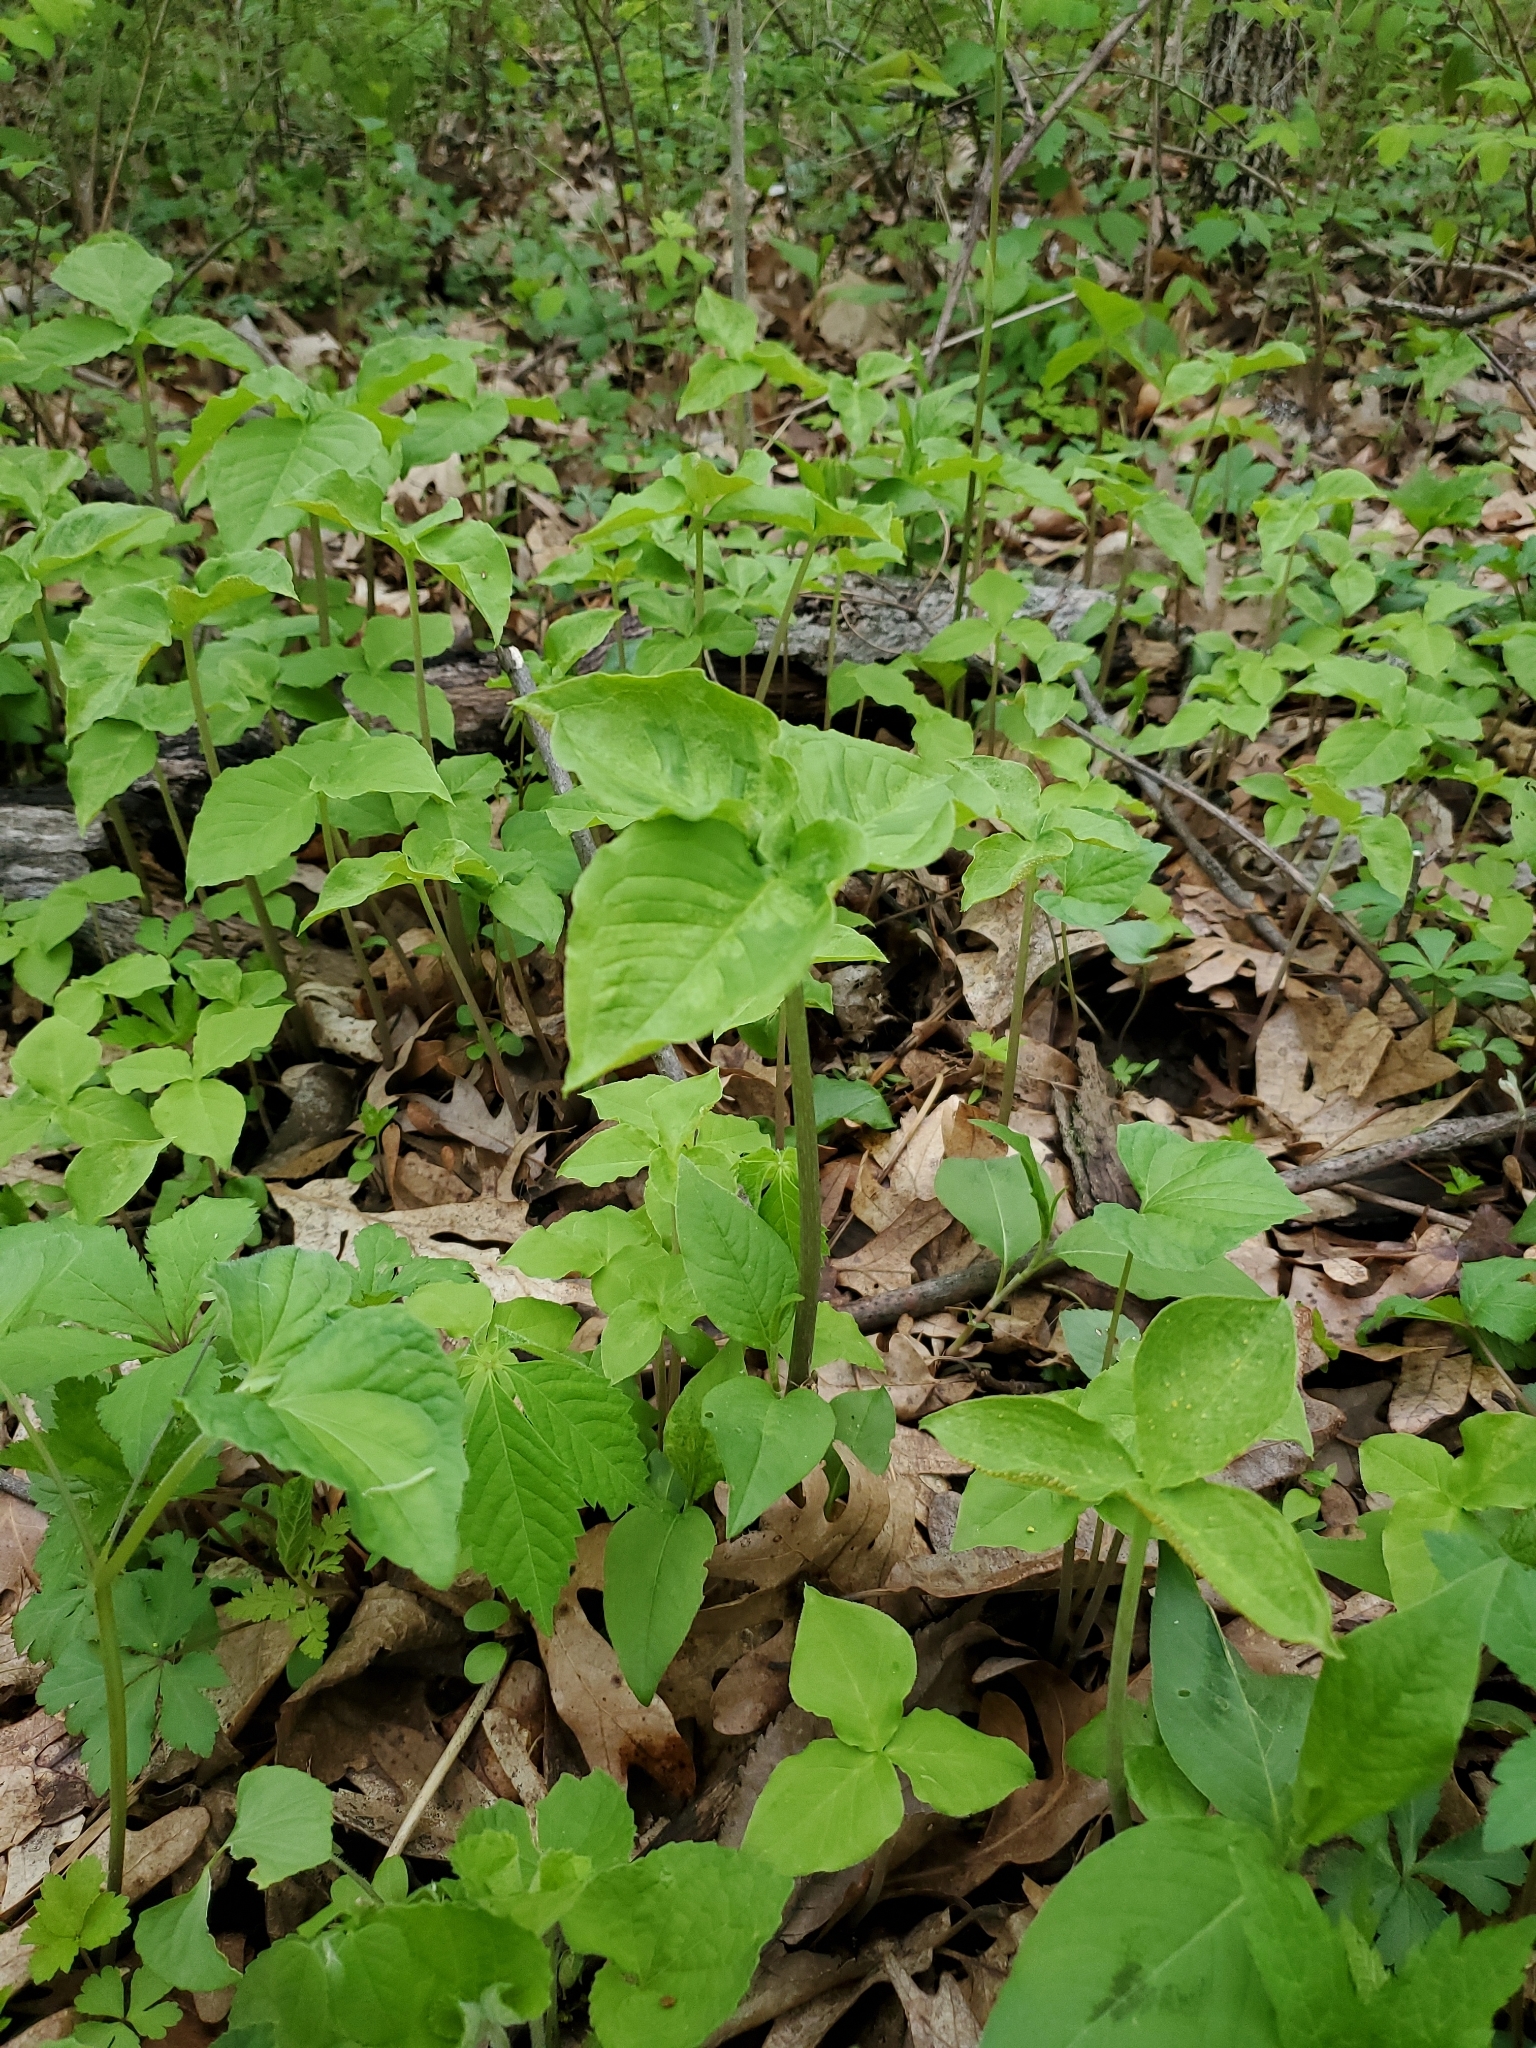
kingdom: Plantae
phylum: Tracheophyta
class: Liliopsida
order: Alismatales
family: Araceae
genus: Arisaema
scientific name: Arisaema triphyllum
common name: Jack-in-the-pulpit
